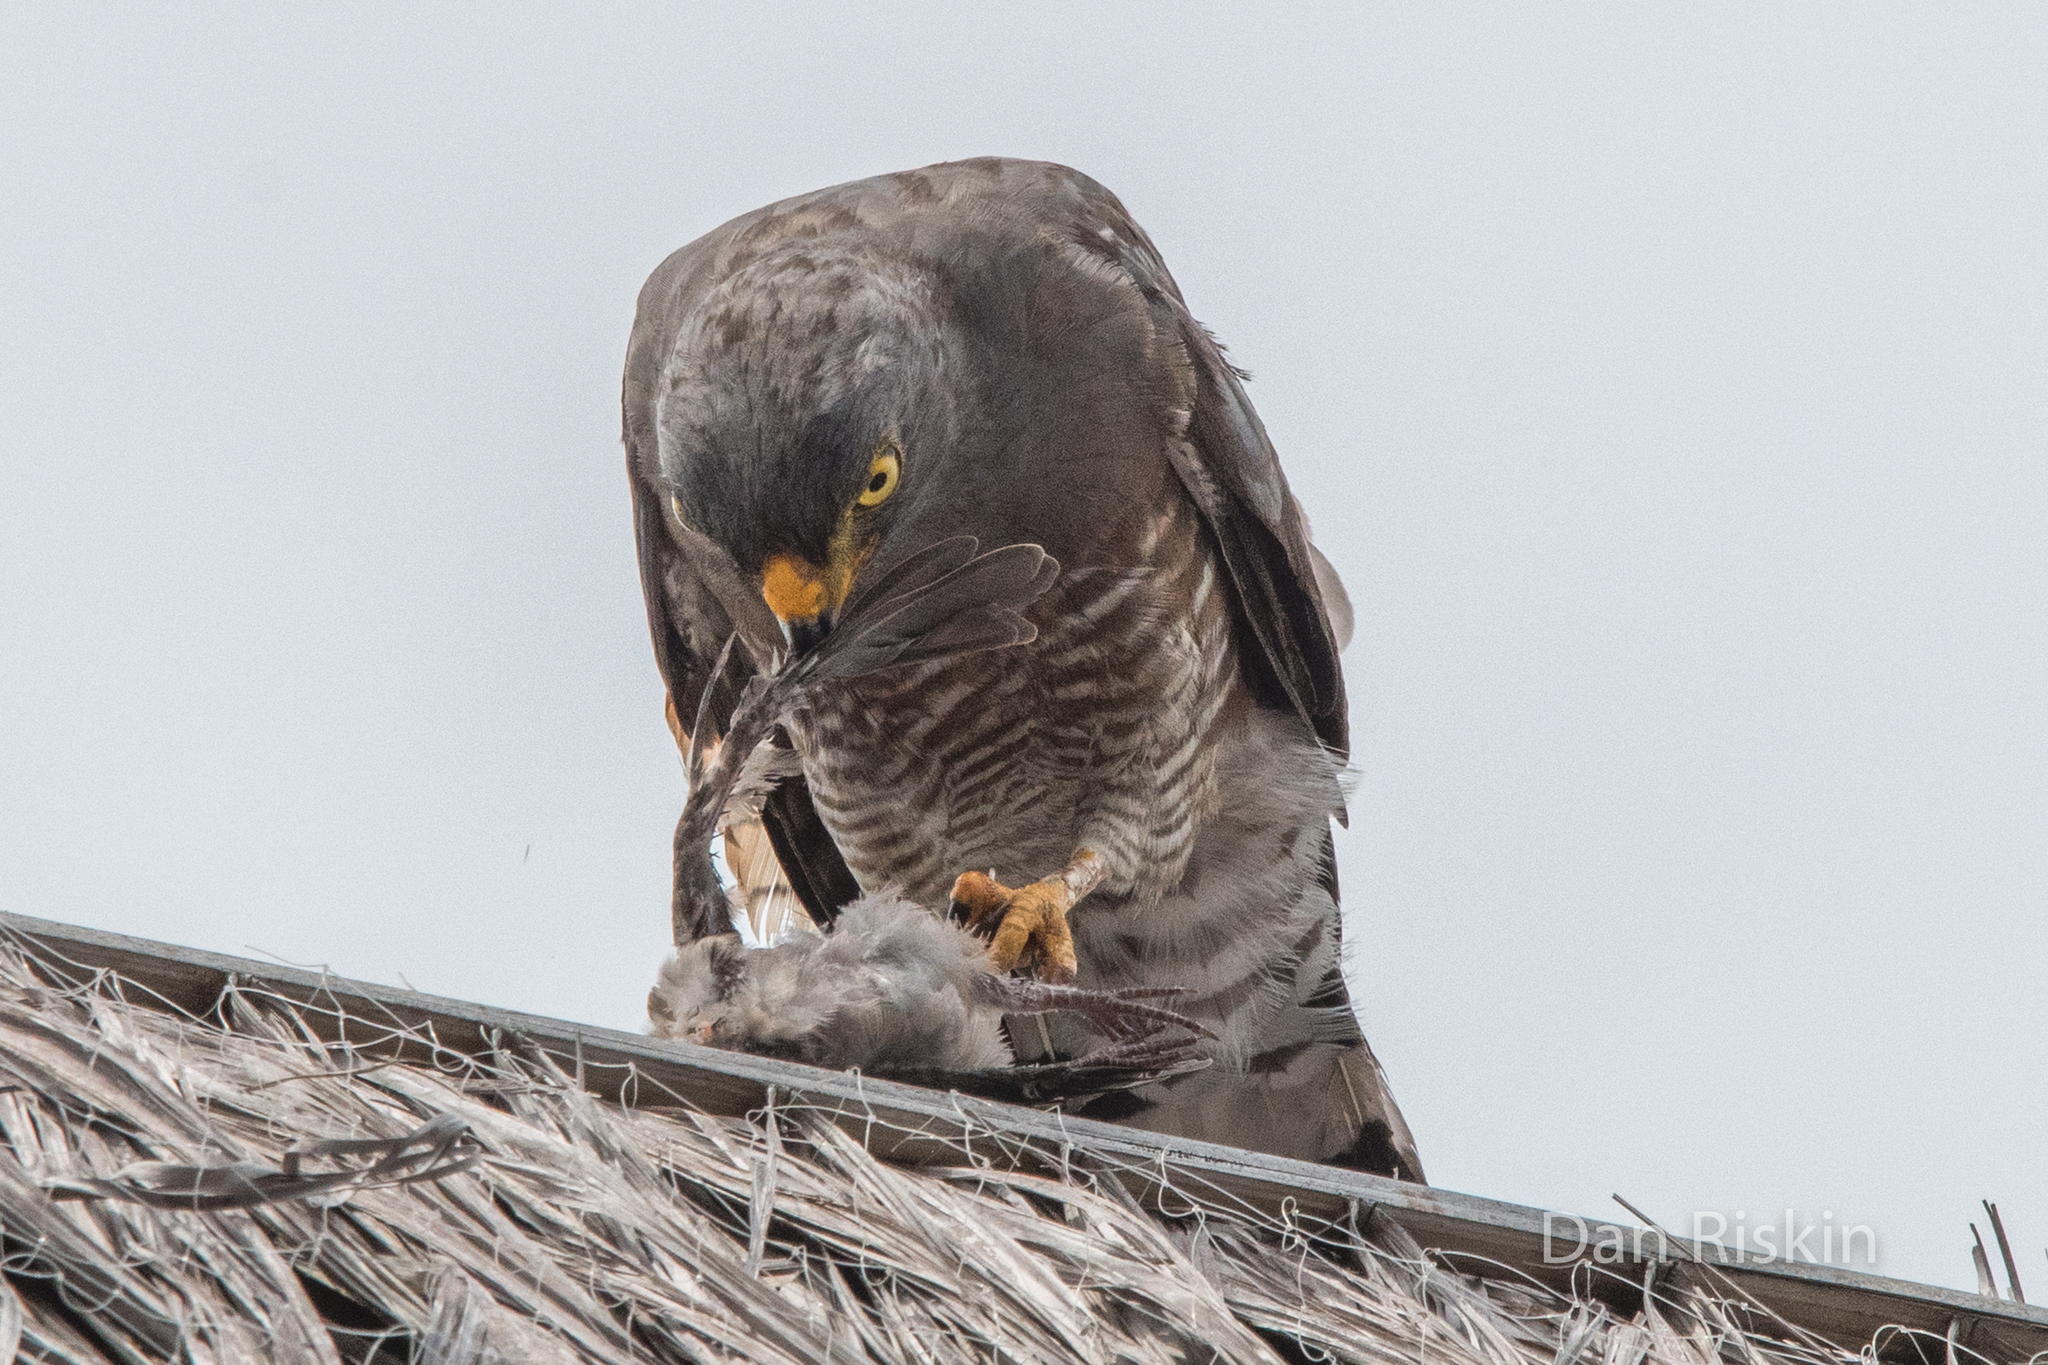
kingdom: Animalia
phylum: Chordata
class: Aves
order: Accipitriformes
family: Accipitridae
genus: Rupornis
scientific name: Rupornis magnirostris
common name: Roadside hawk
